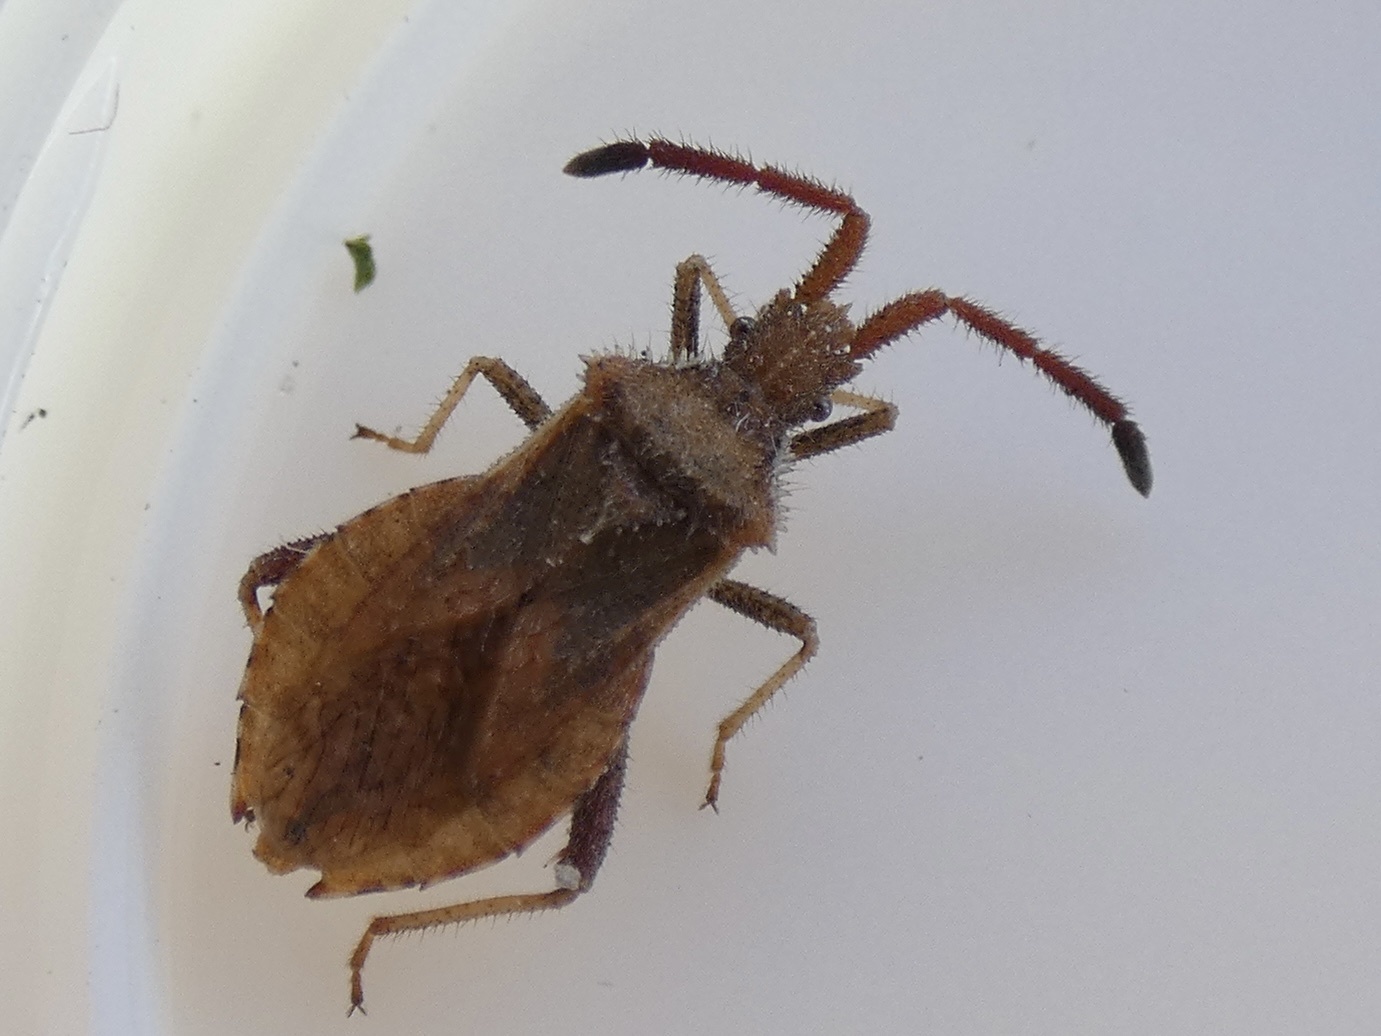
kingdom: Animalia
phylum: Arthropoda
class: Insecta
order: Hemiptera
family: Coreidae
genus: Coriomeris
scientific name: Coriomeris denticulatus
